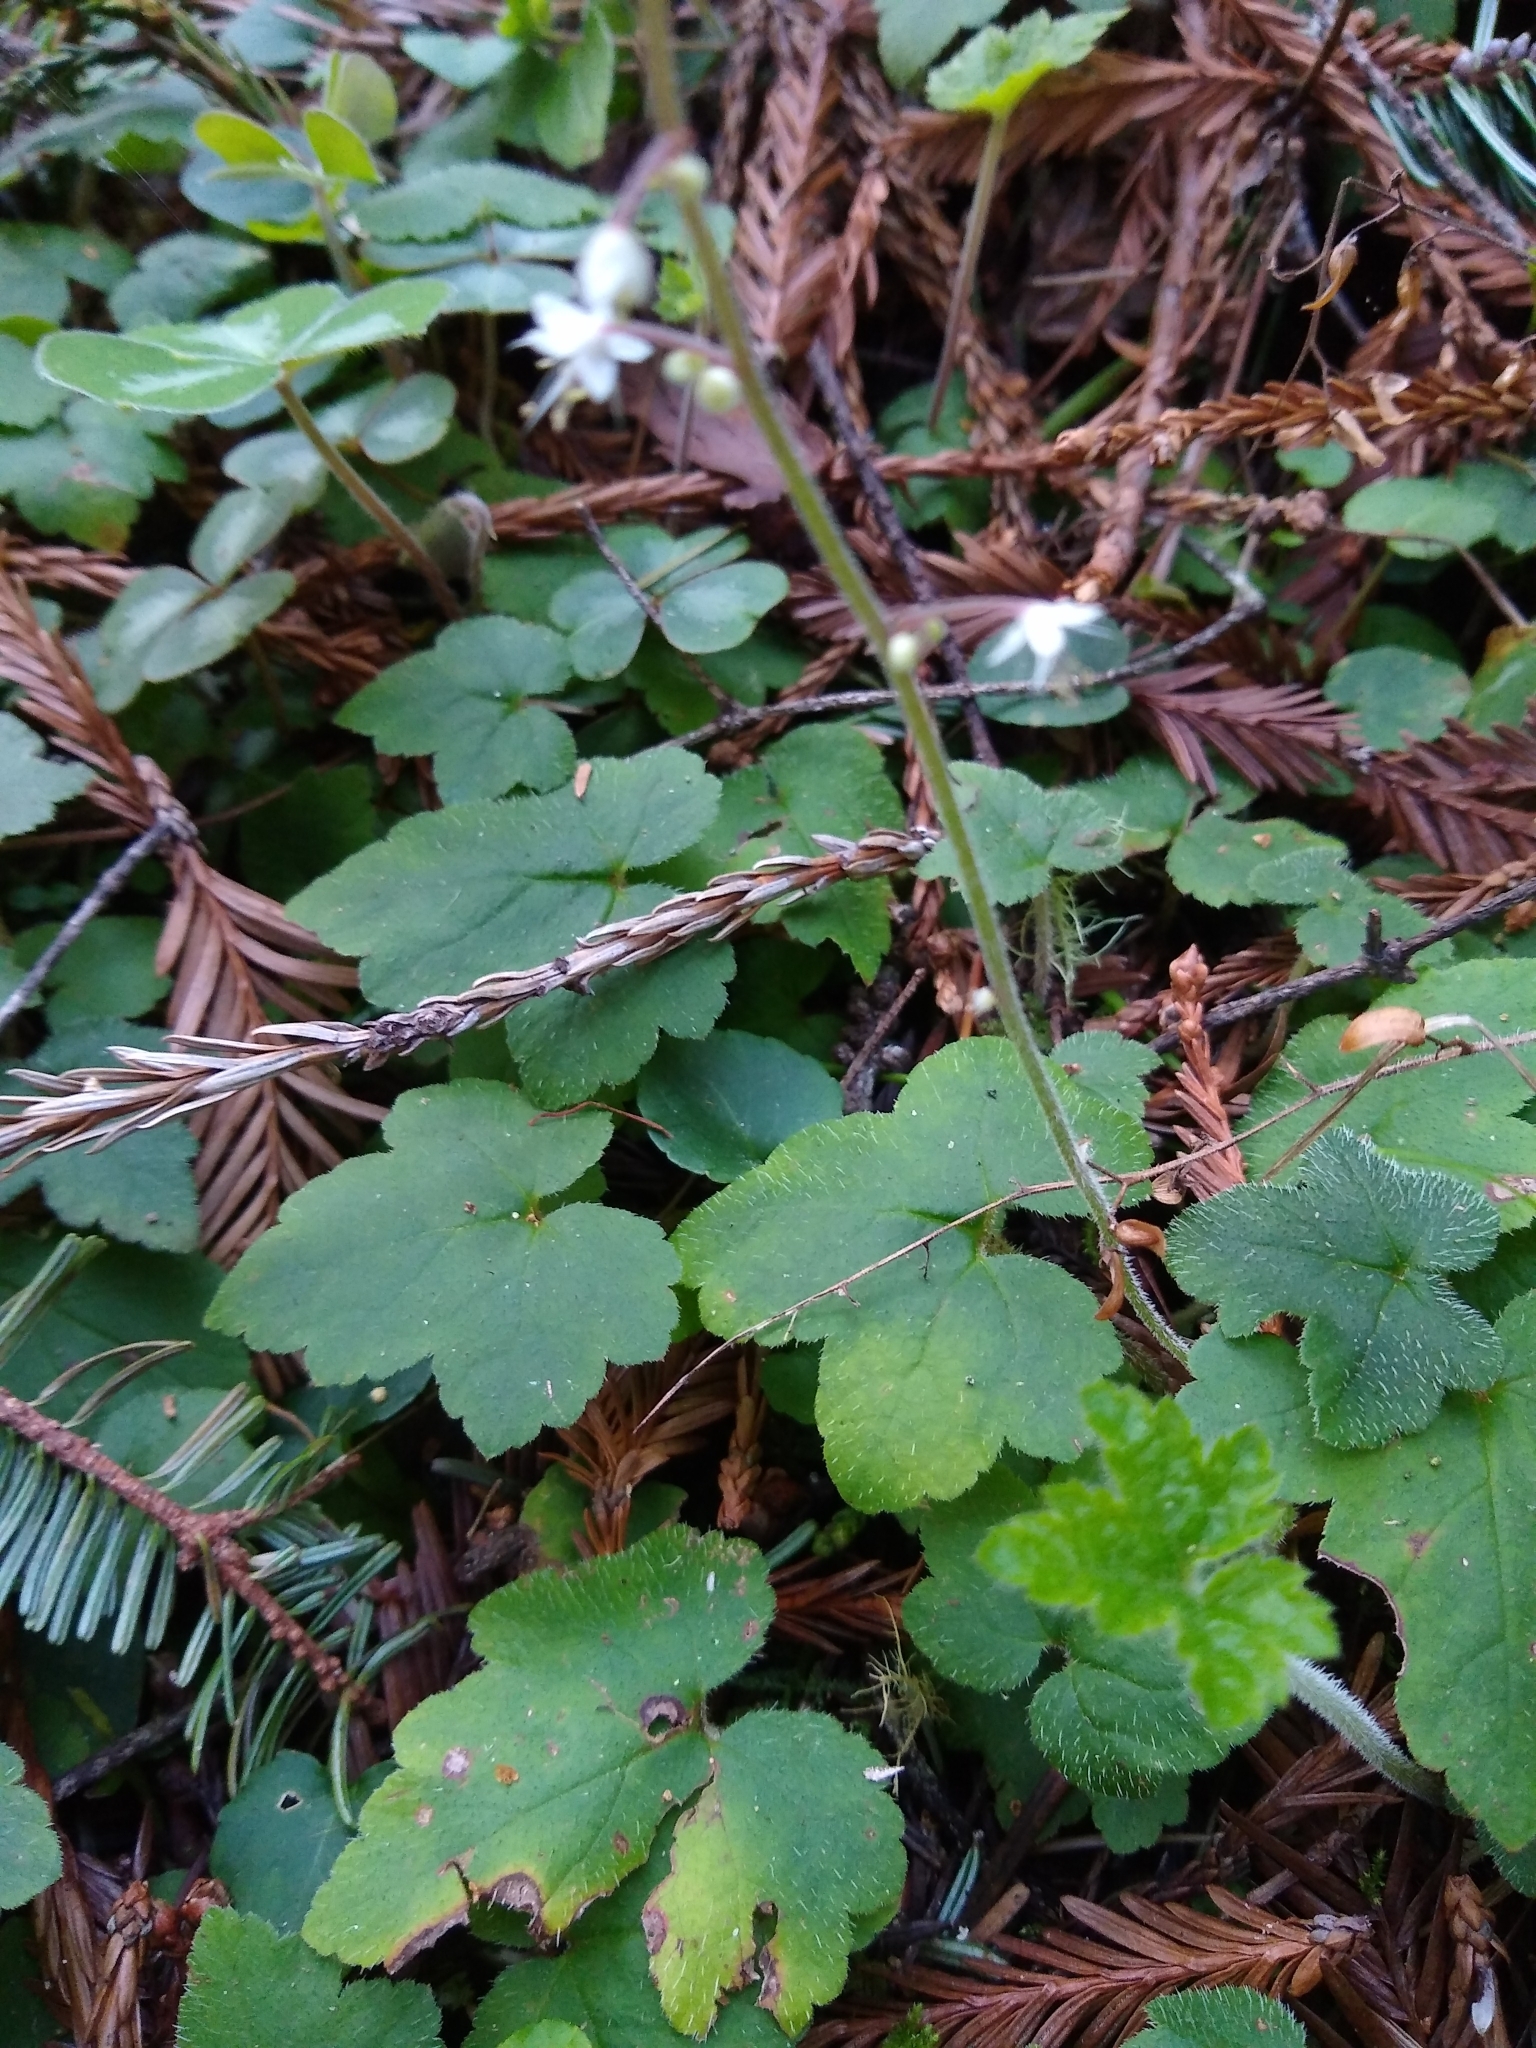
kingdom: Plantae
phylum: Tracheophyta
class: Magnoliopsida
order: Saxifragales
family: Saxifragaceae
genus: Tiarella
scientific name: Tiarella trifoliata
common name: Sugar-scoop
